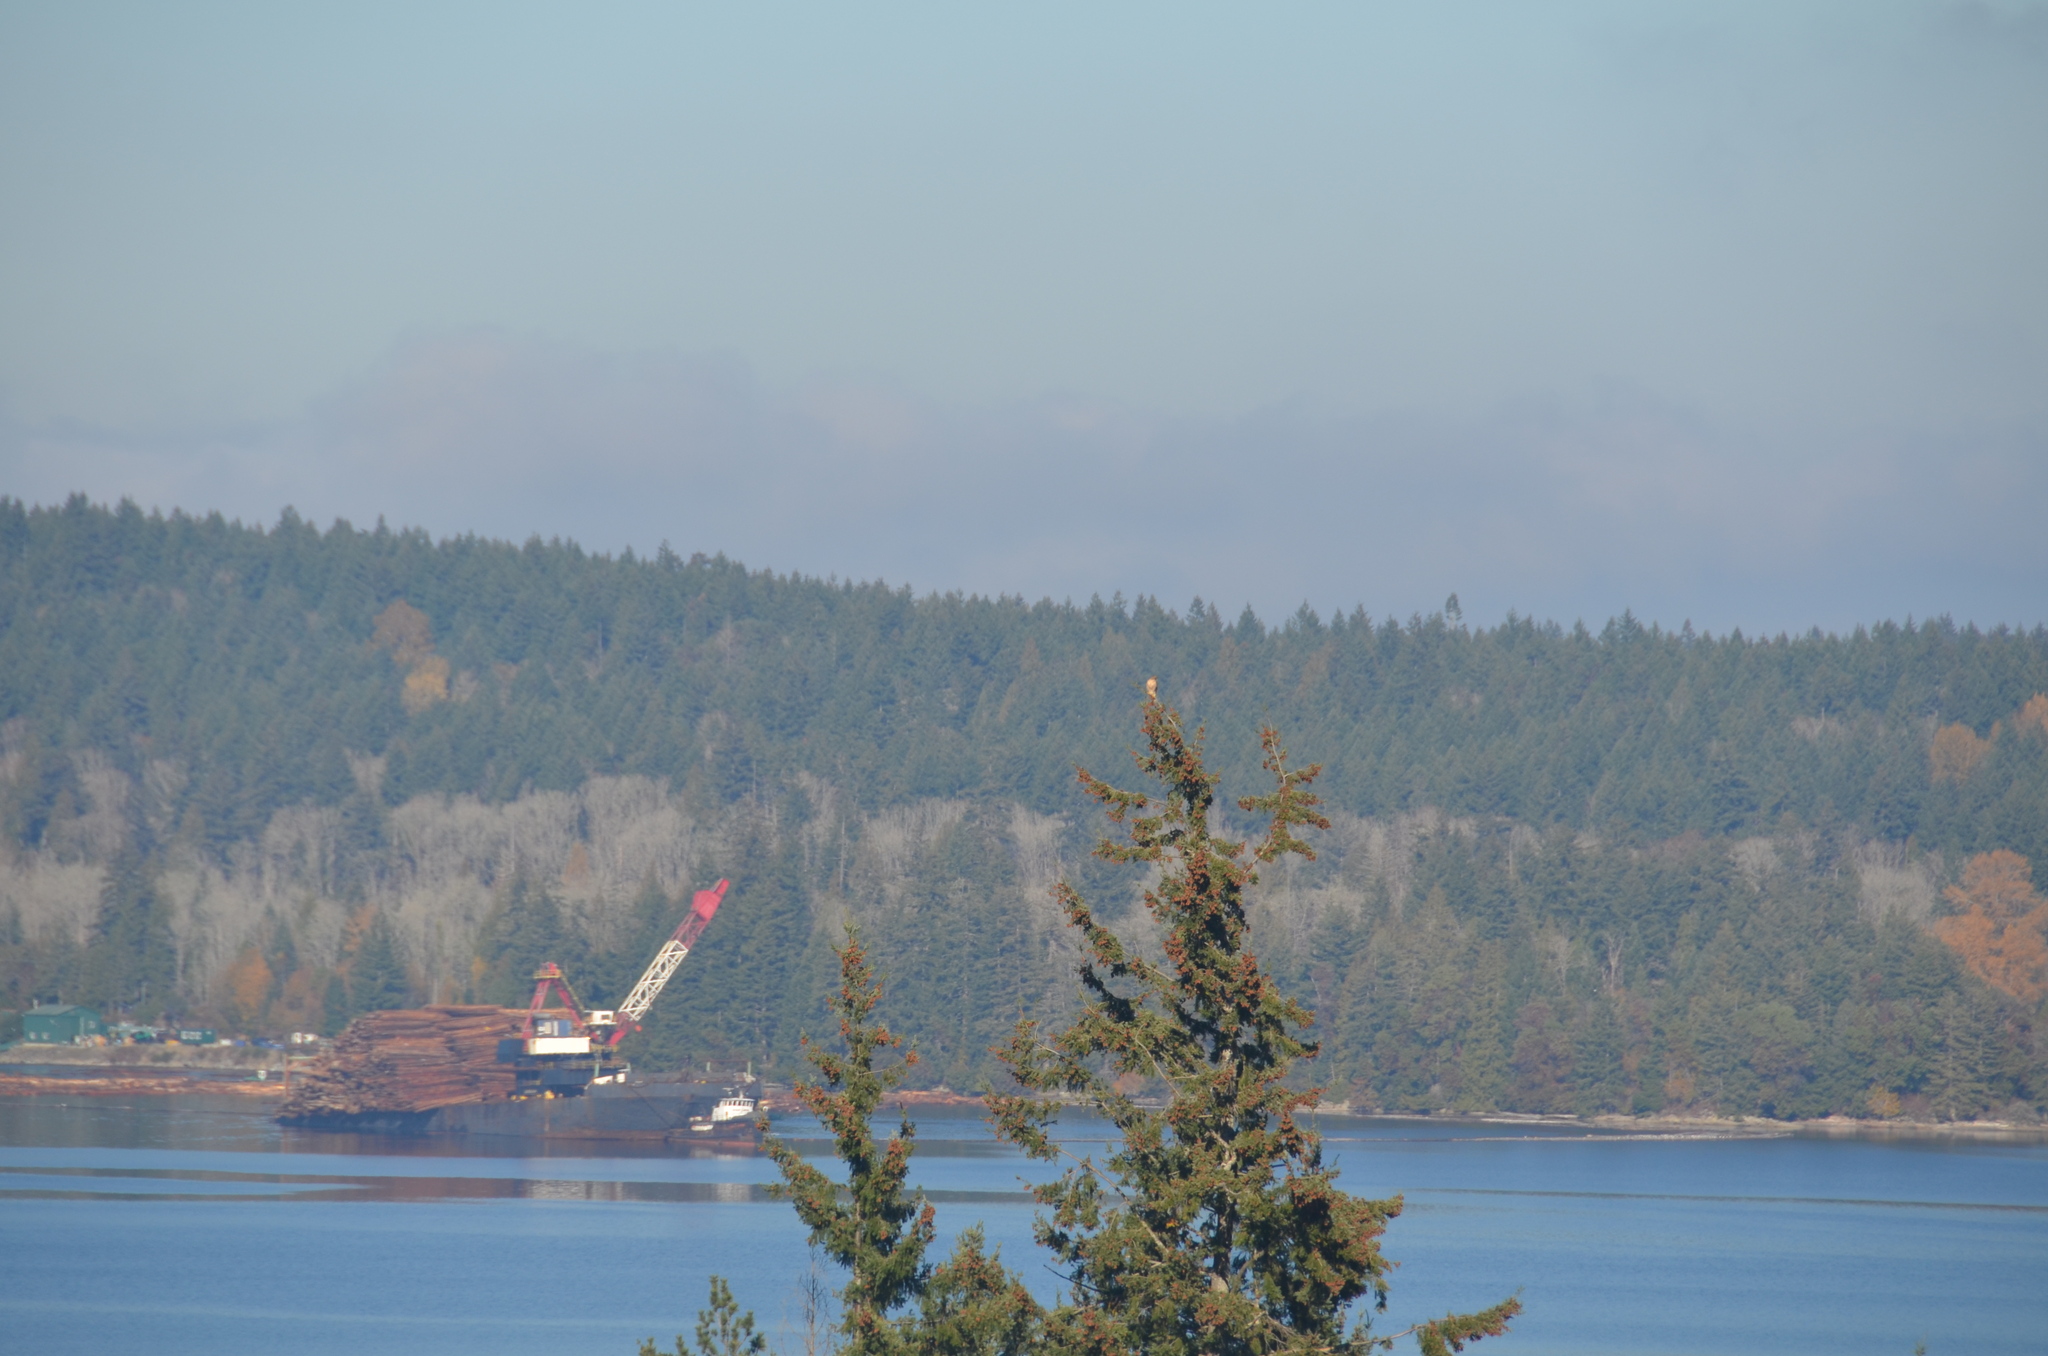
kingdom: Animalia
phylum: Chordata
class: Aves
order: Accipitriformes
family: Accipitridae
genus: Buteo
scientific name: Buteo jamaicensis
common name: Red-tailed hawk
